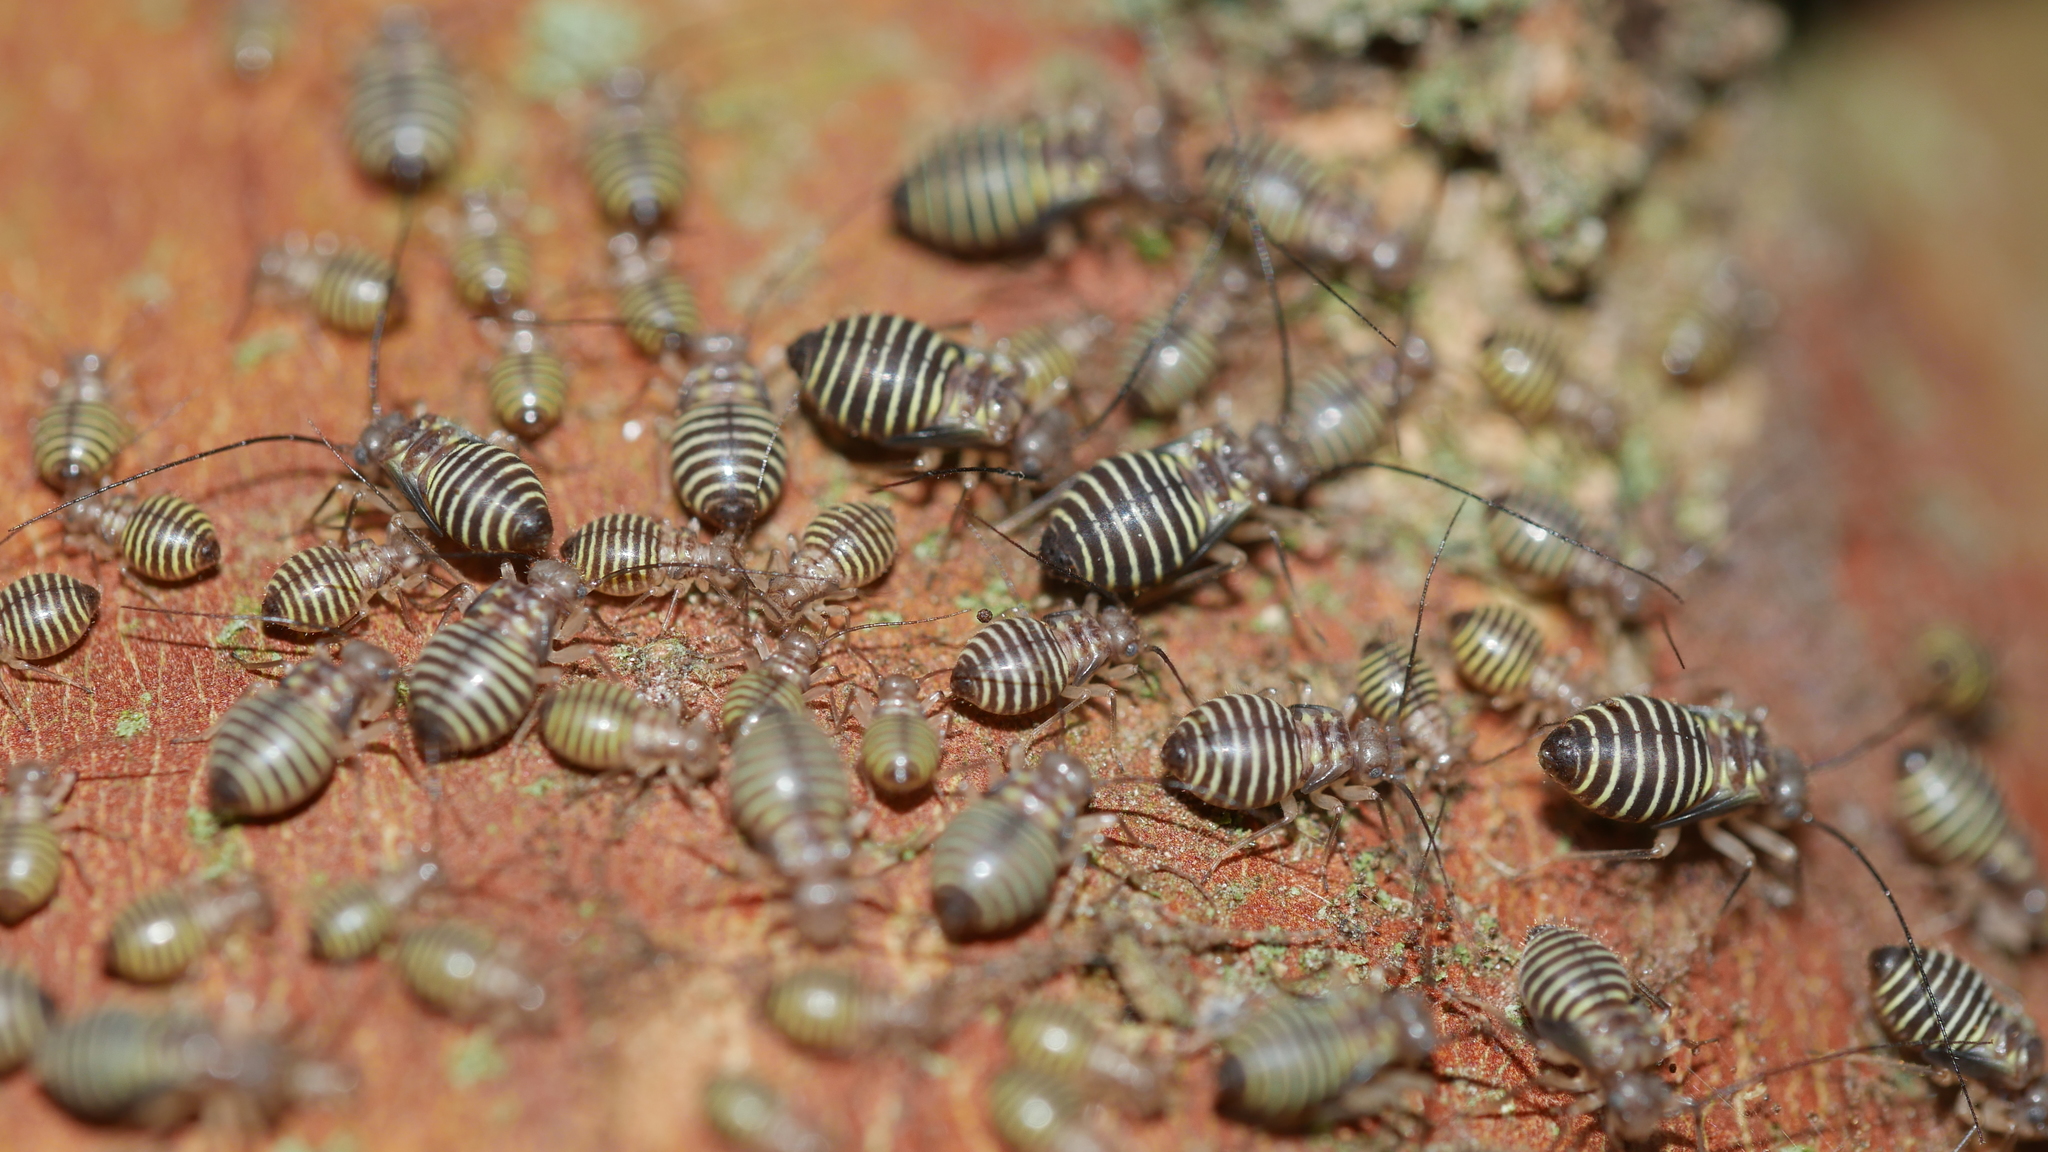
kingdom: Animalia
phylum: Arthropoda
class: Insecta
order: Psocodea
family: Psocidae
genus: Cerastipsocus
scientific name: Cerastipsocus venosus
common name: Tree cattle
